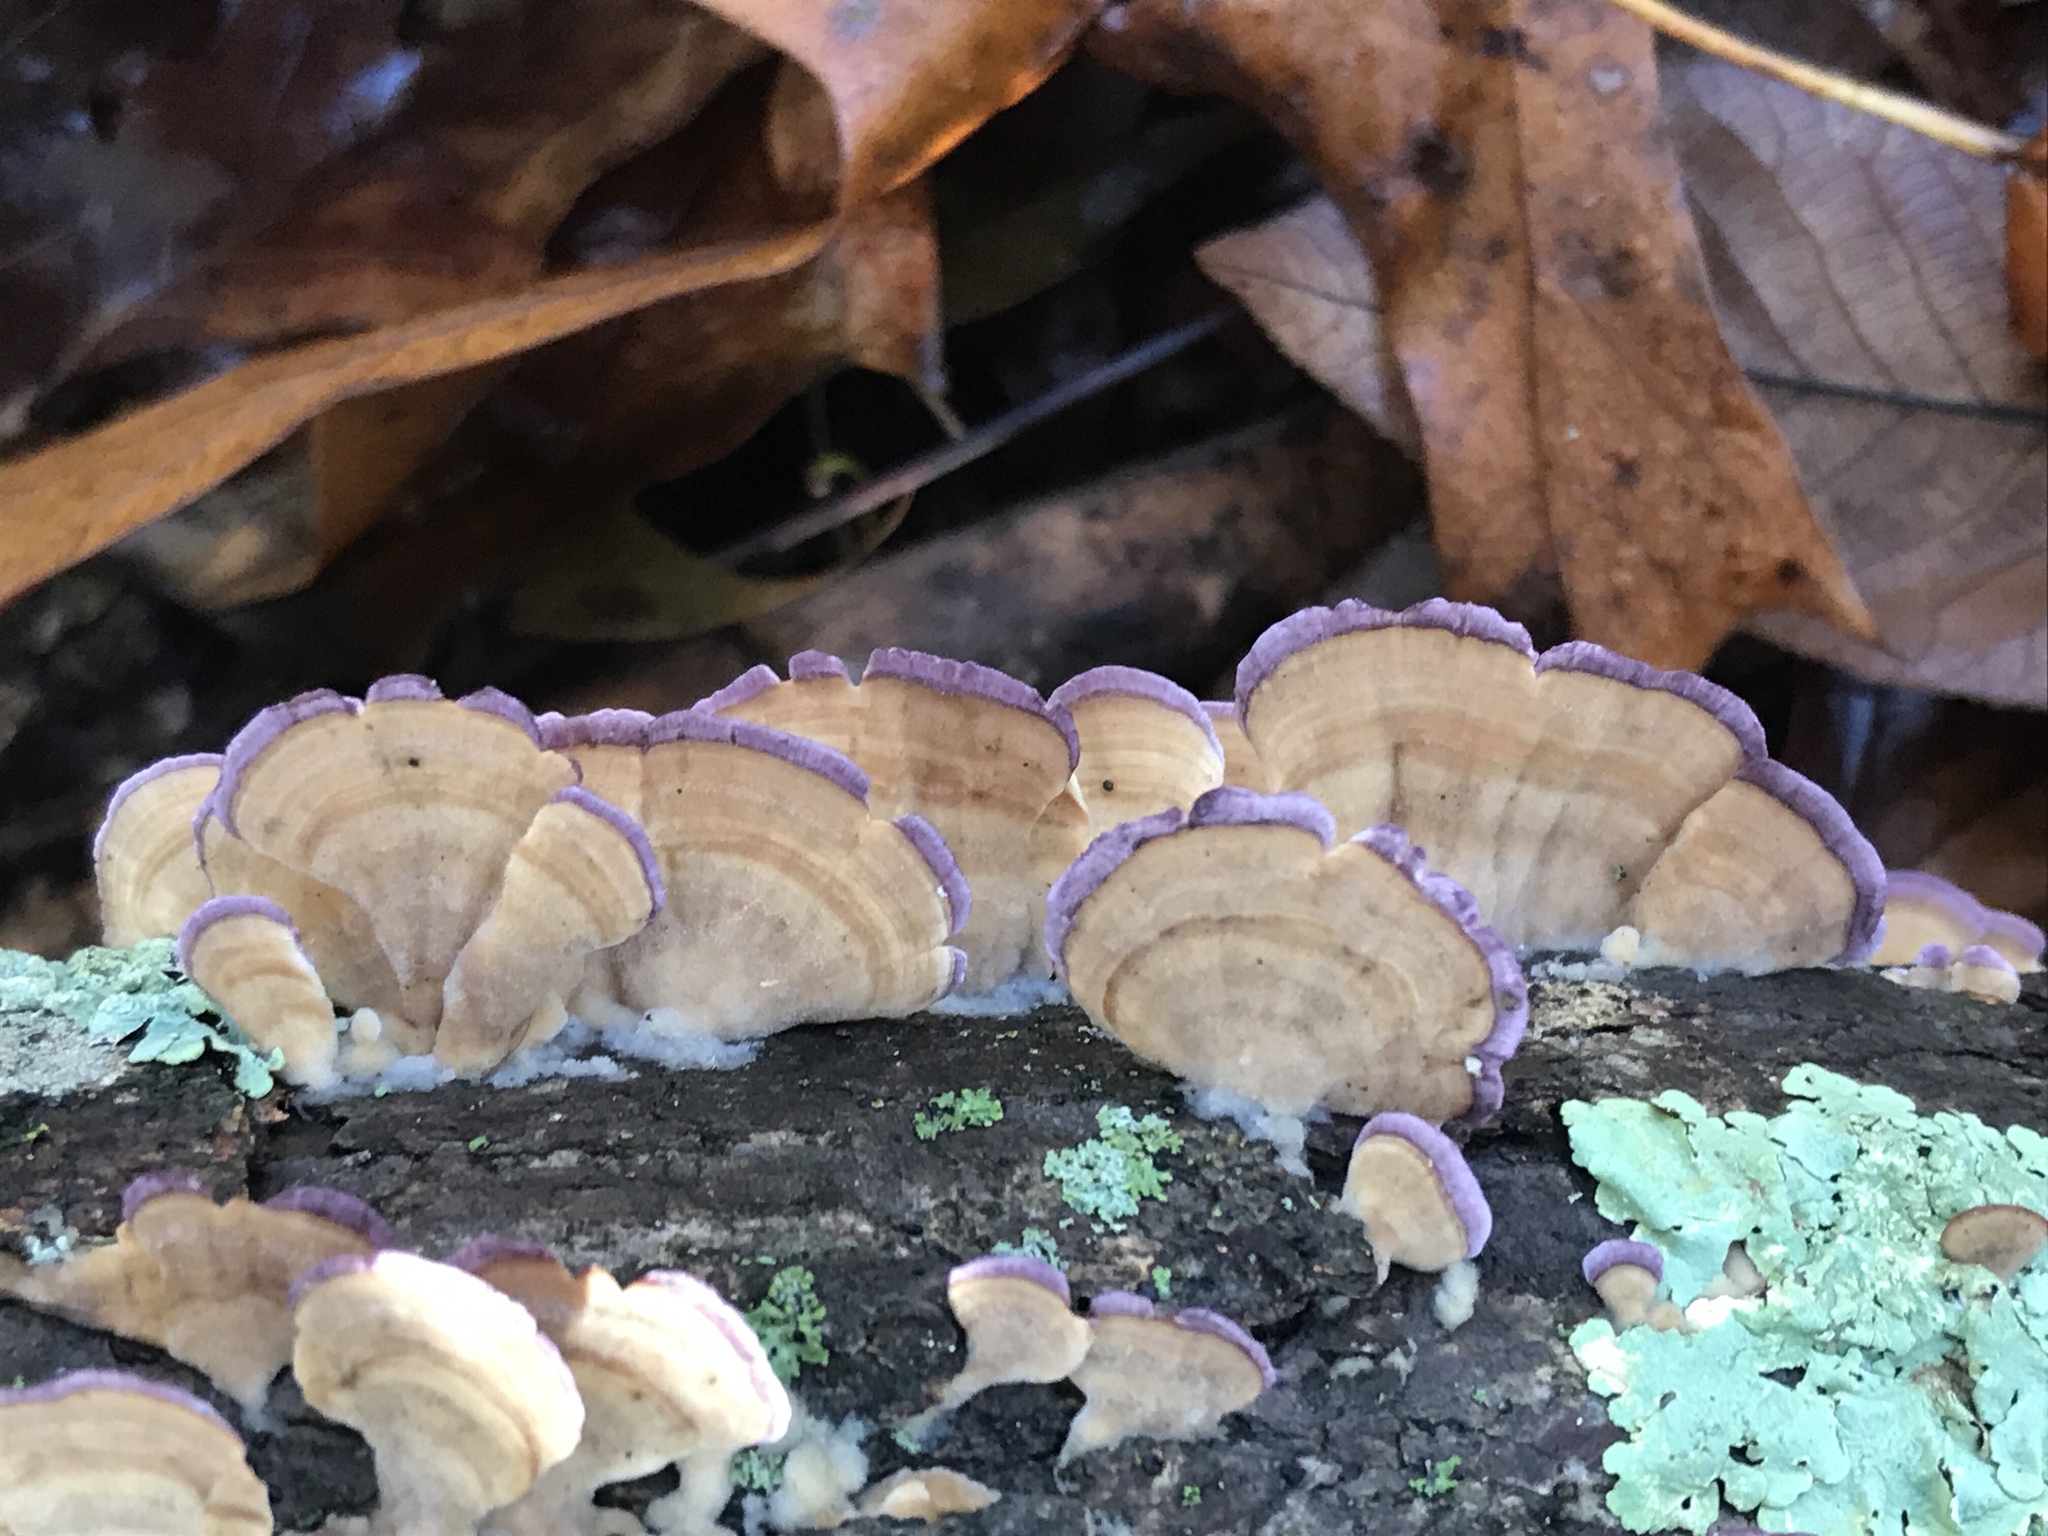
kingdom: Fungi
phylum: Basidiomycota
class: Agaricomycetes
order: Hymenochaetales
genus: Trichaptum
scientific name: Trichaptum biforme
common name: Violet-toothed polypore
